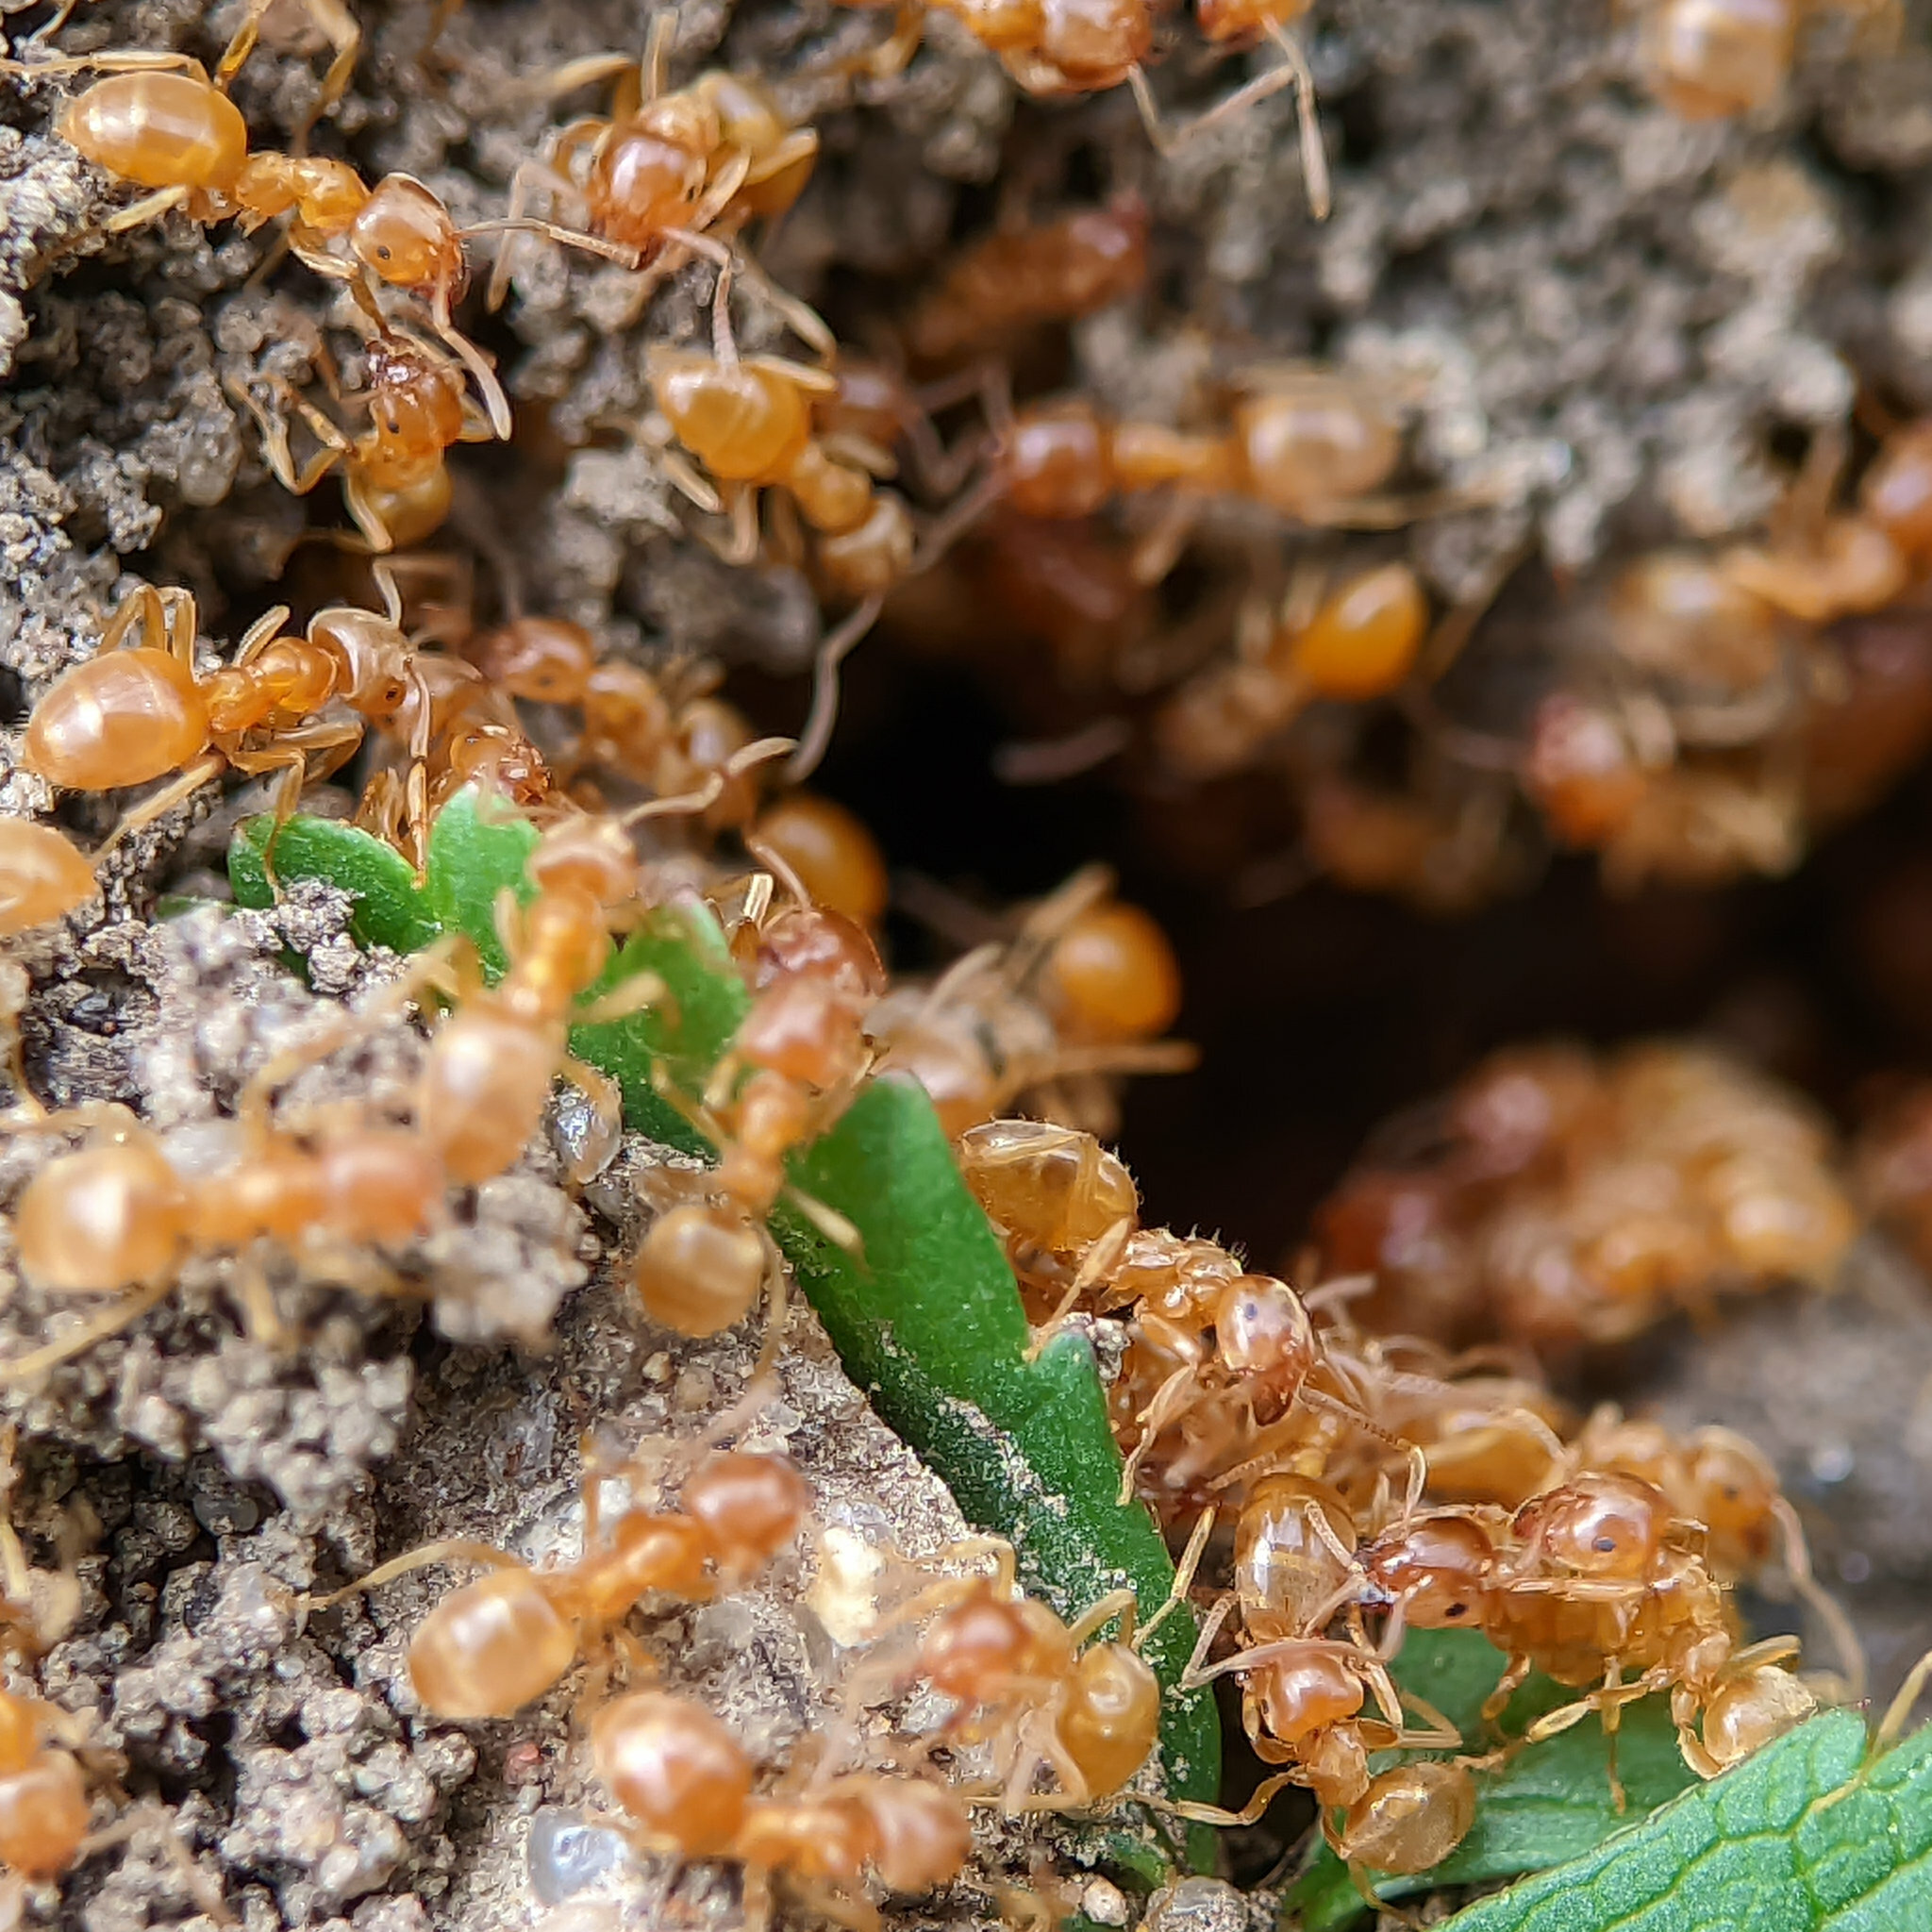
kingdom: Animalia
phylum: Arthropoda
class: Insecta
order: Hymenoptera
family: Formicidae
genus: Lasius
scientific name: Lasius flavus
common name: Blond field ant
